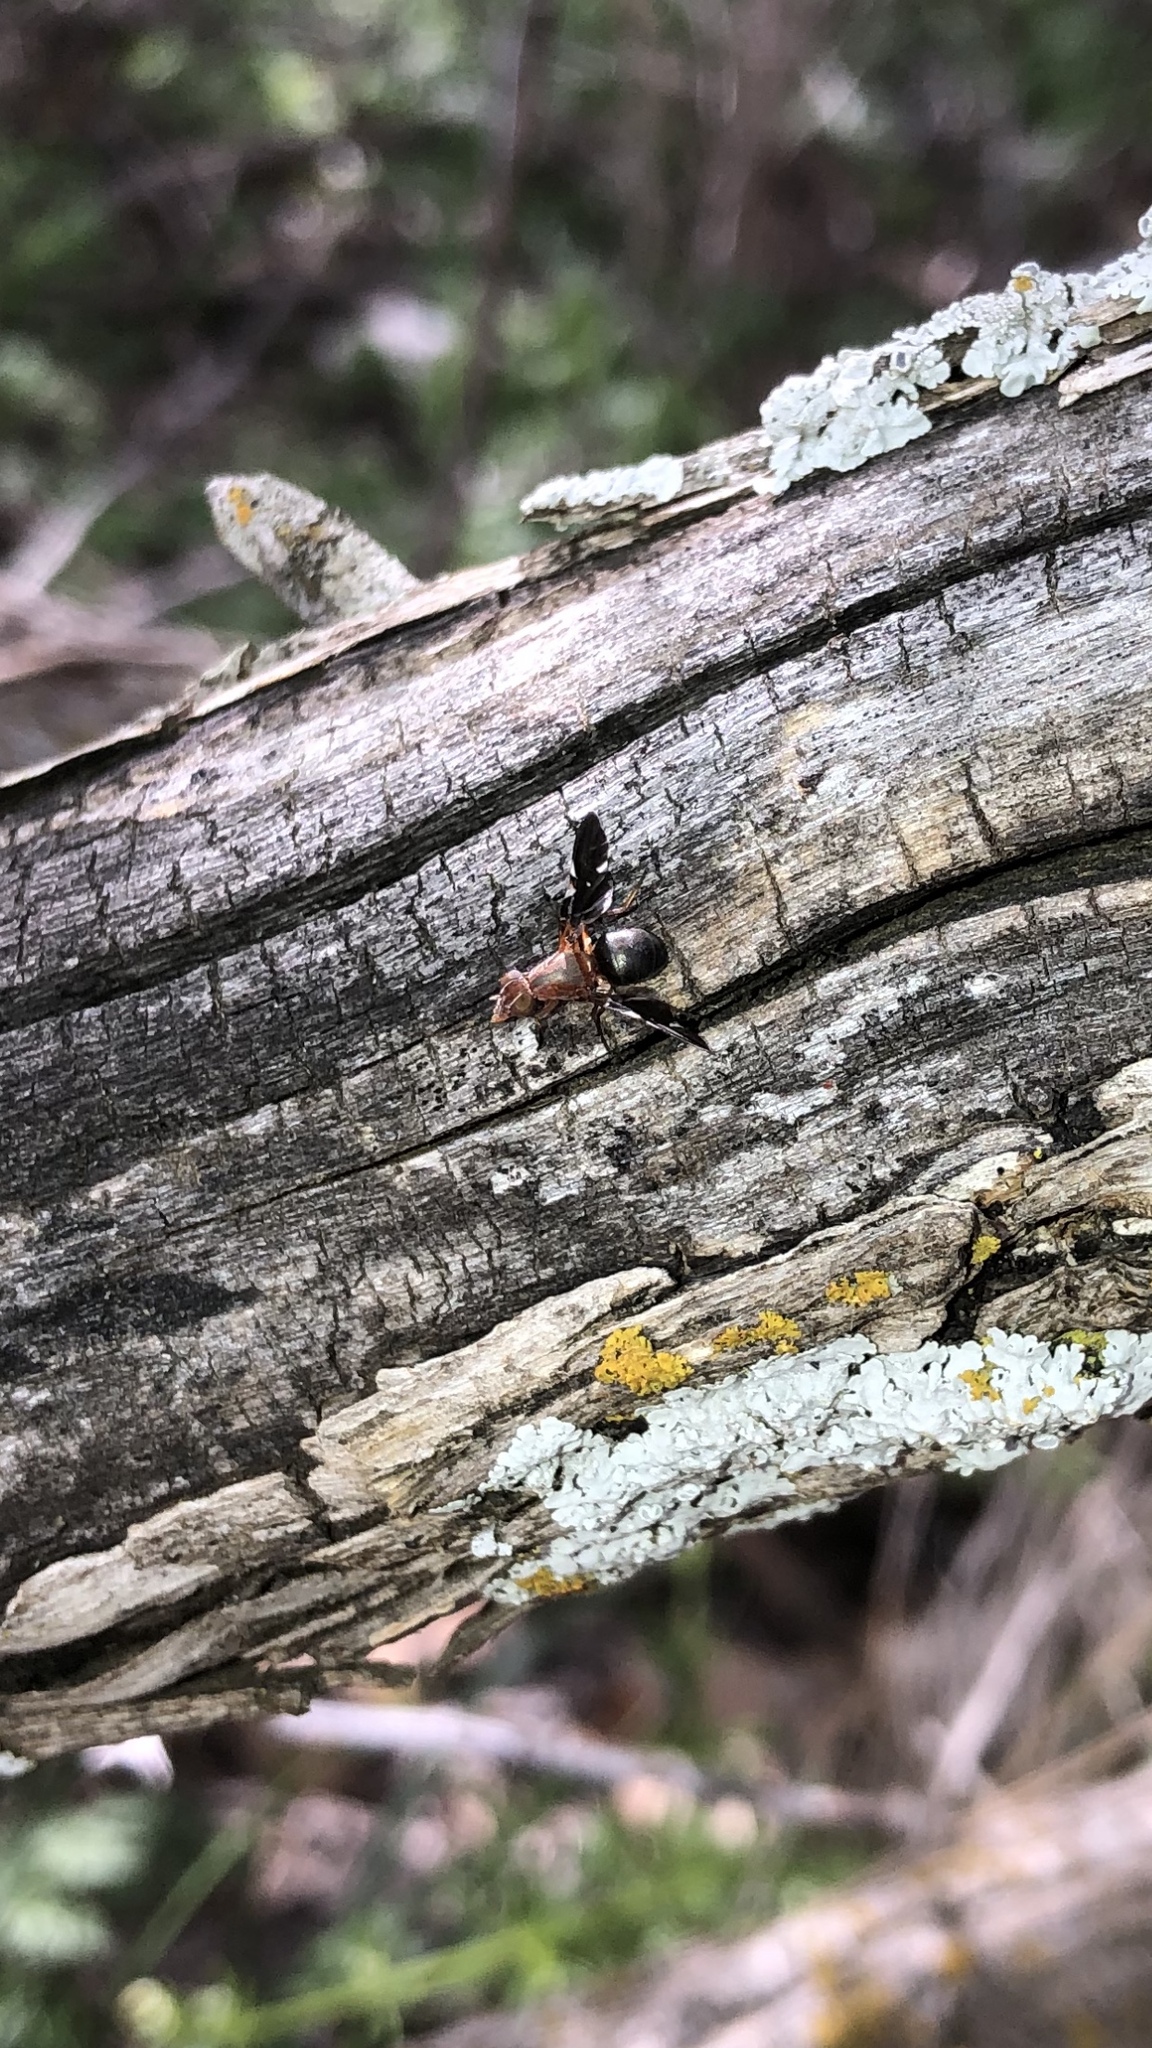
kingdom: Animalia
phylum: Arthropoda
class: Insecta
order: Diptera
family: Ulidiidae
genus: Delphinia
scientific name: Delphinia picta
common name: Common picture-winged fly
